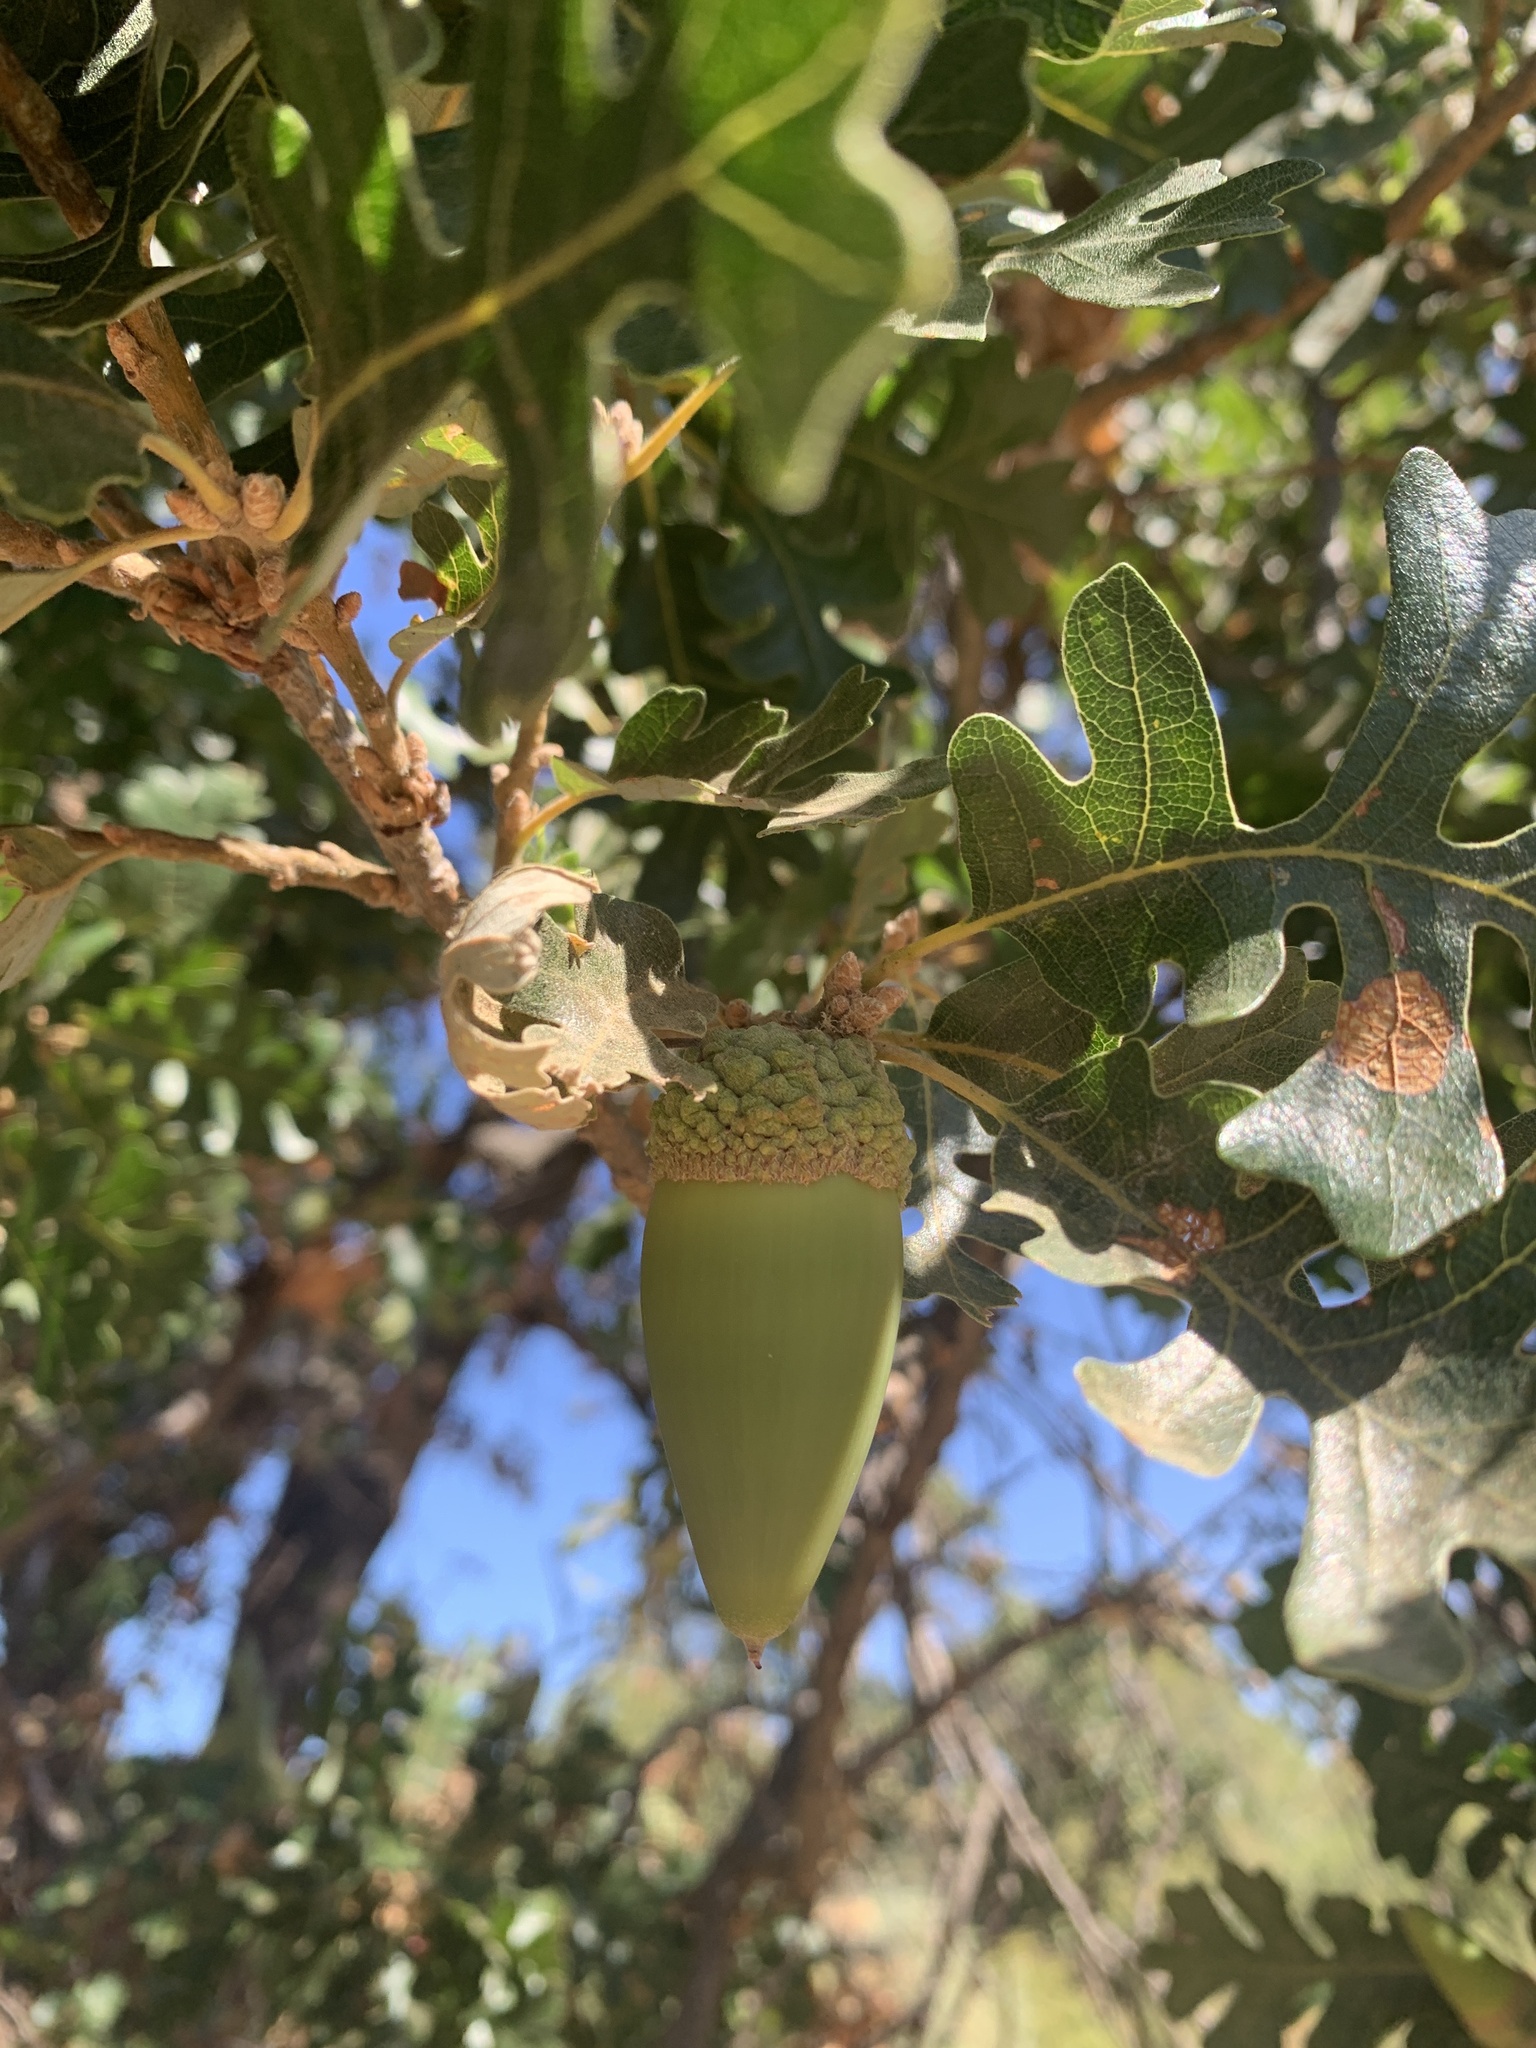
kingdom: Plantae
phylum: Tracheophyta
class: Magnoliopsida
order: Fagales
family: Fagaceae
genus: Quercus
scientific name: Quercus lobata
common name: Valley oak
